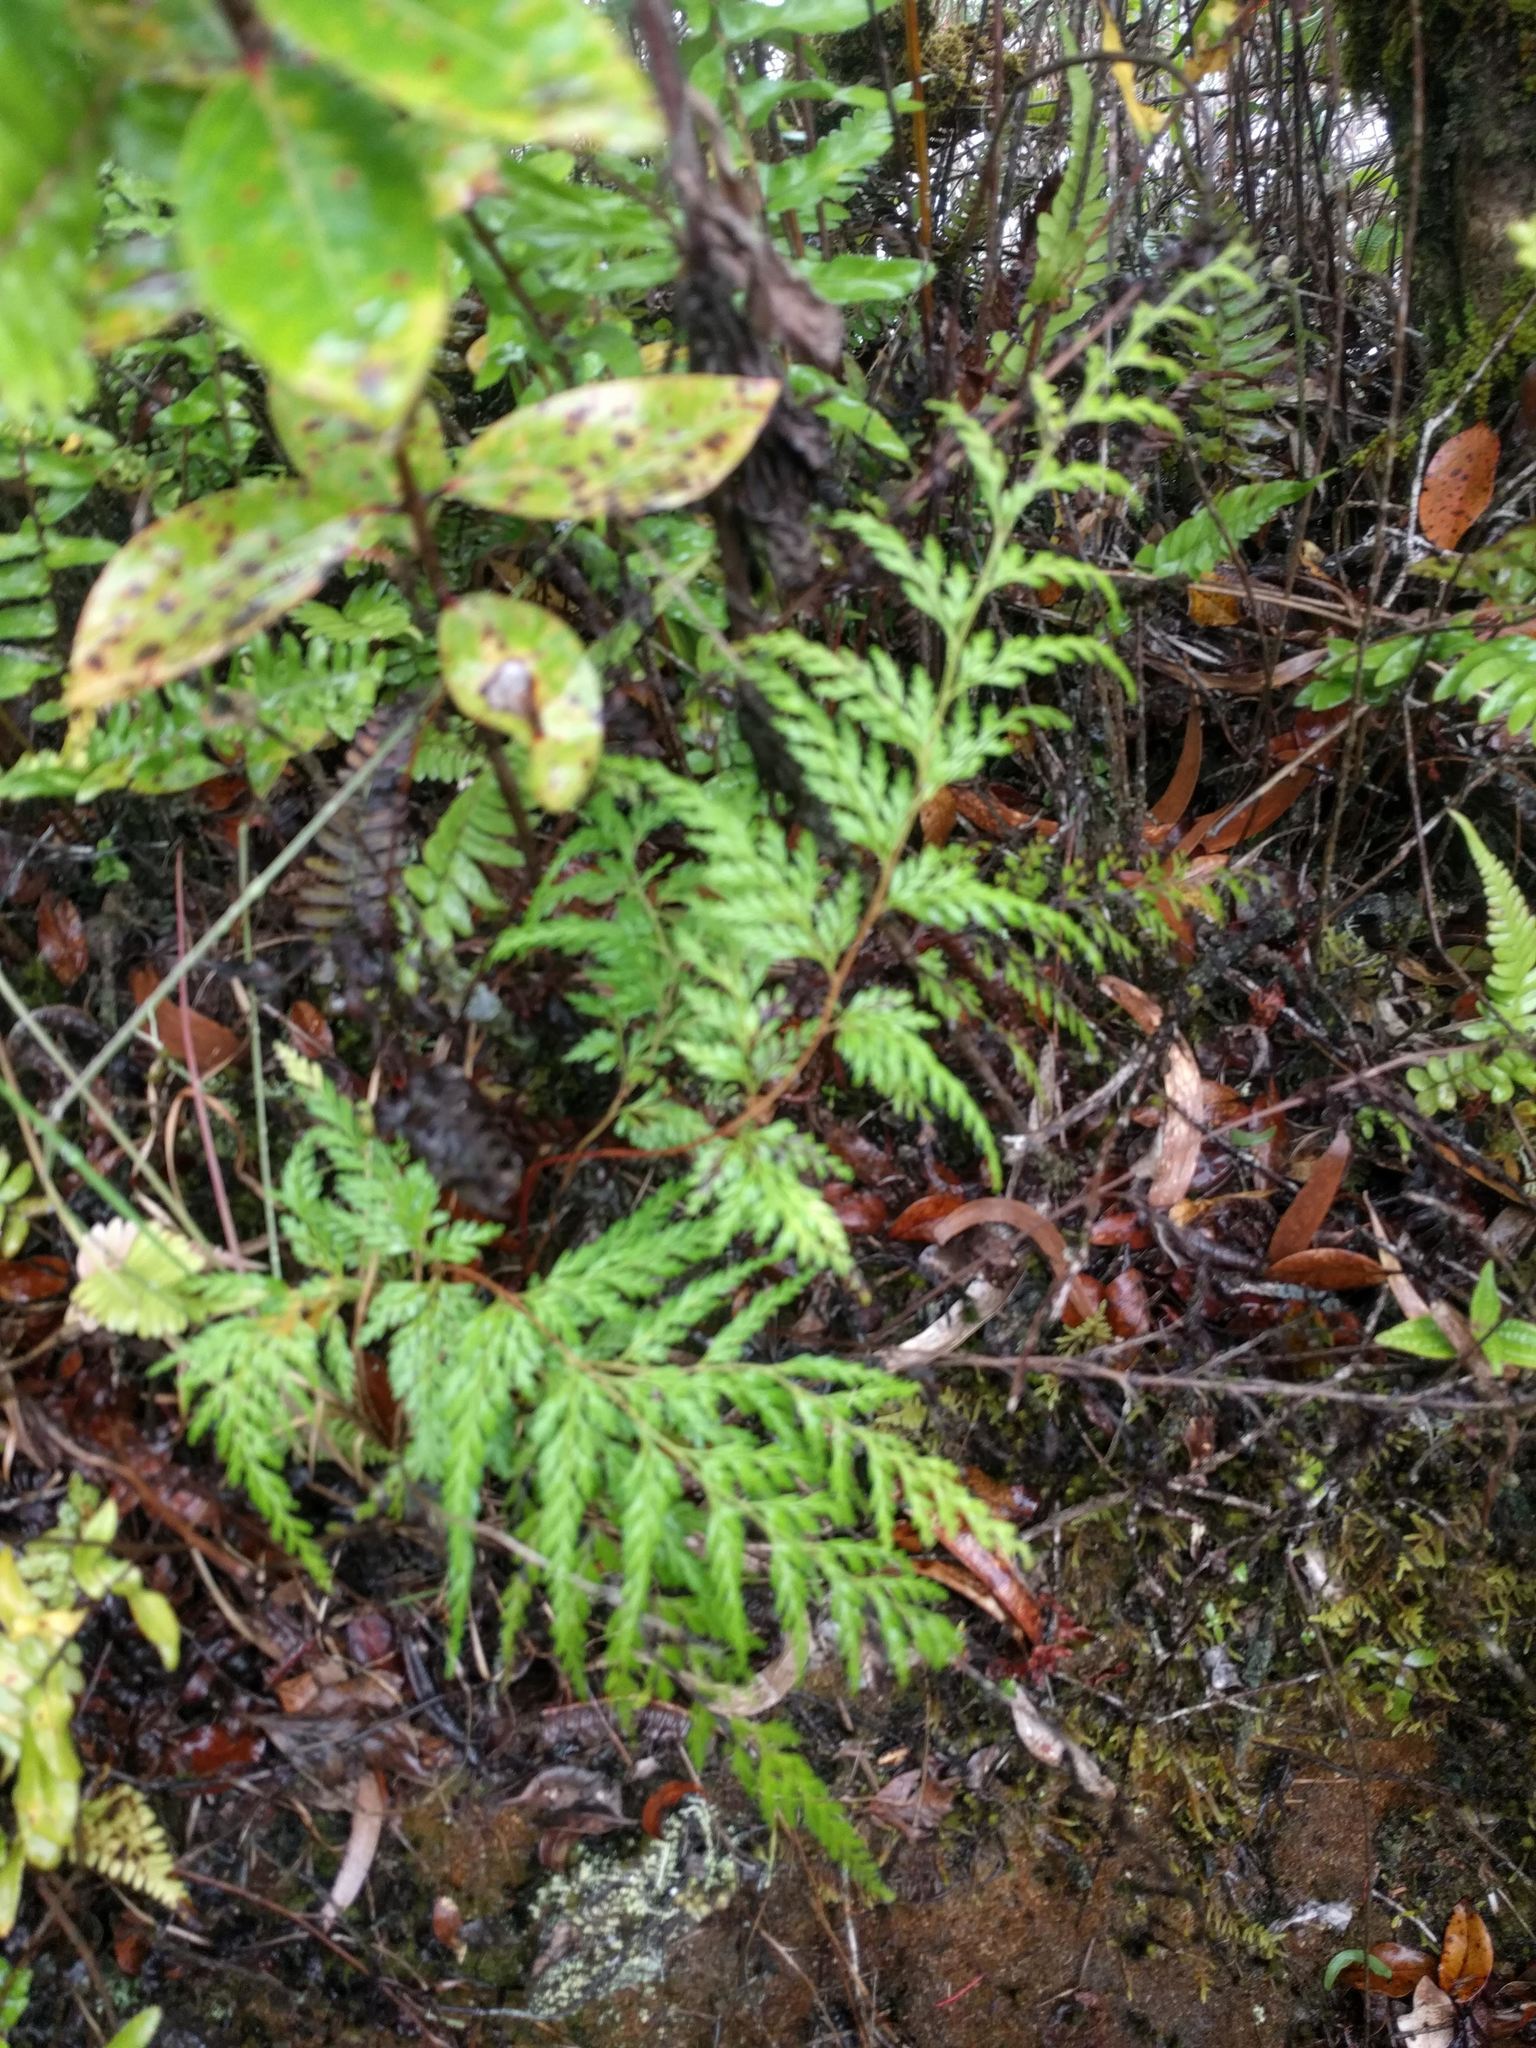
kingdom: Plantae
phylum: Tracheophyta
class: Polypodiopsida
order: Polypodiales
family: Lindsaeaceae
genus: Odontosoria
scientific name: Odontosoria chinensis
